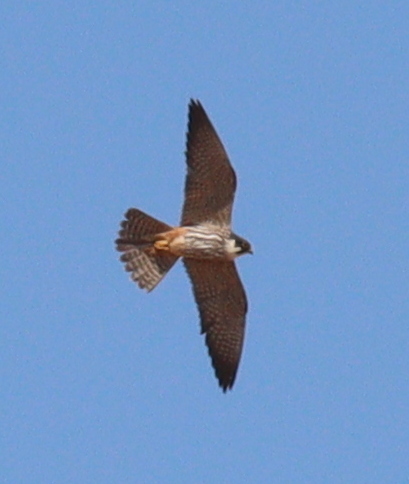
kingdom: Animalia
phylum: Chordata
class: Aves
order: Falconiformes
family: Falconidae
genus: Falco
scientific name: Falco subbuteo
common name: Eurasian hobby
